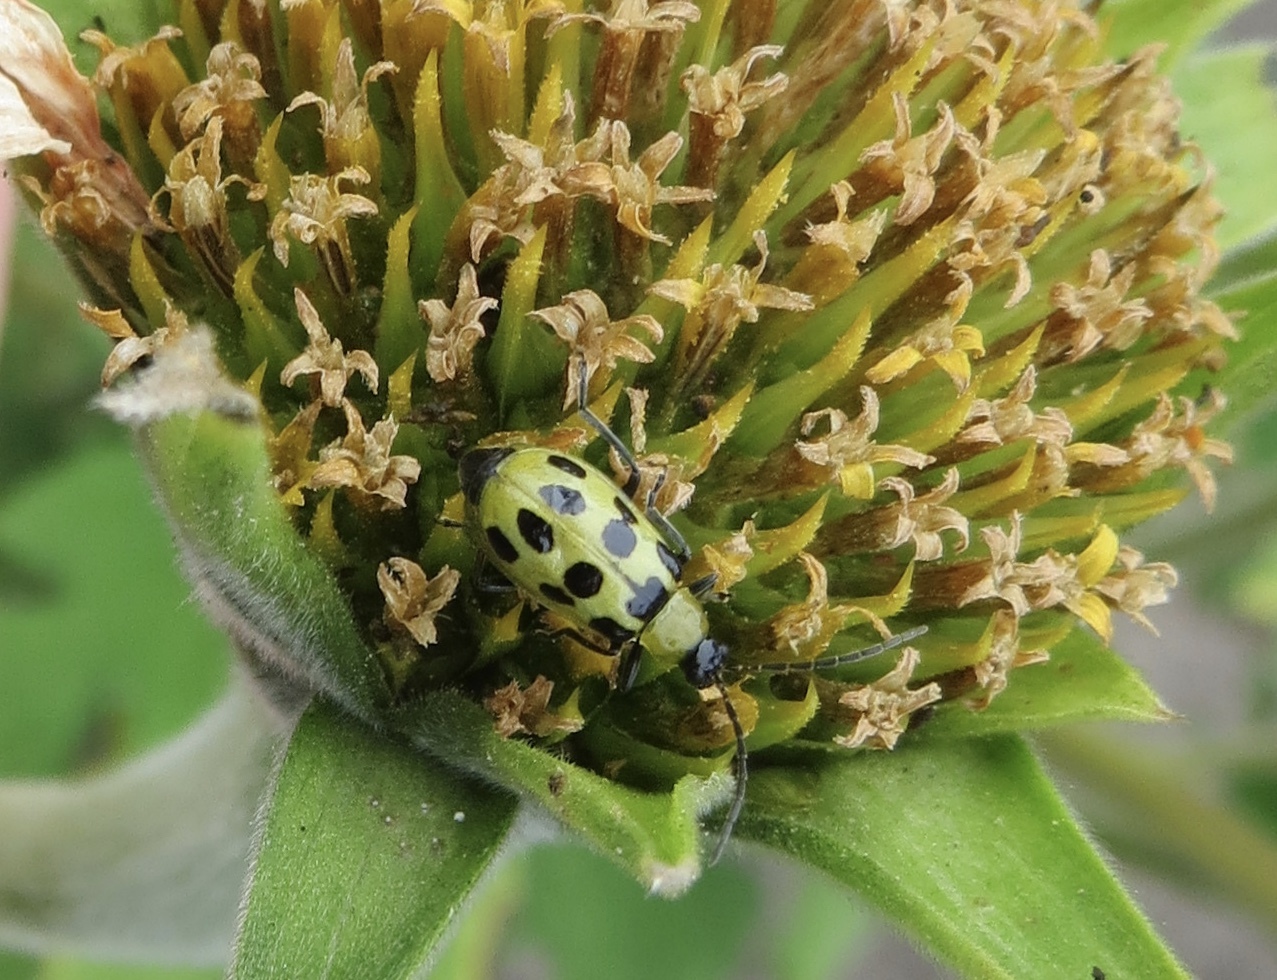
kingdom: Animalia
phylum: Arthropoda
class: Insecta
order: Coleoptera
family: Chrysomelidae
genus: Diabrotica
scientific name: Diabrotica undecimpunctata
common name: Spotted cucumber beetle
